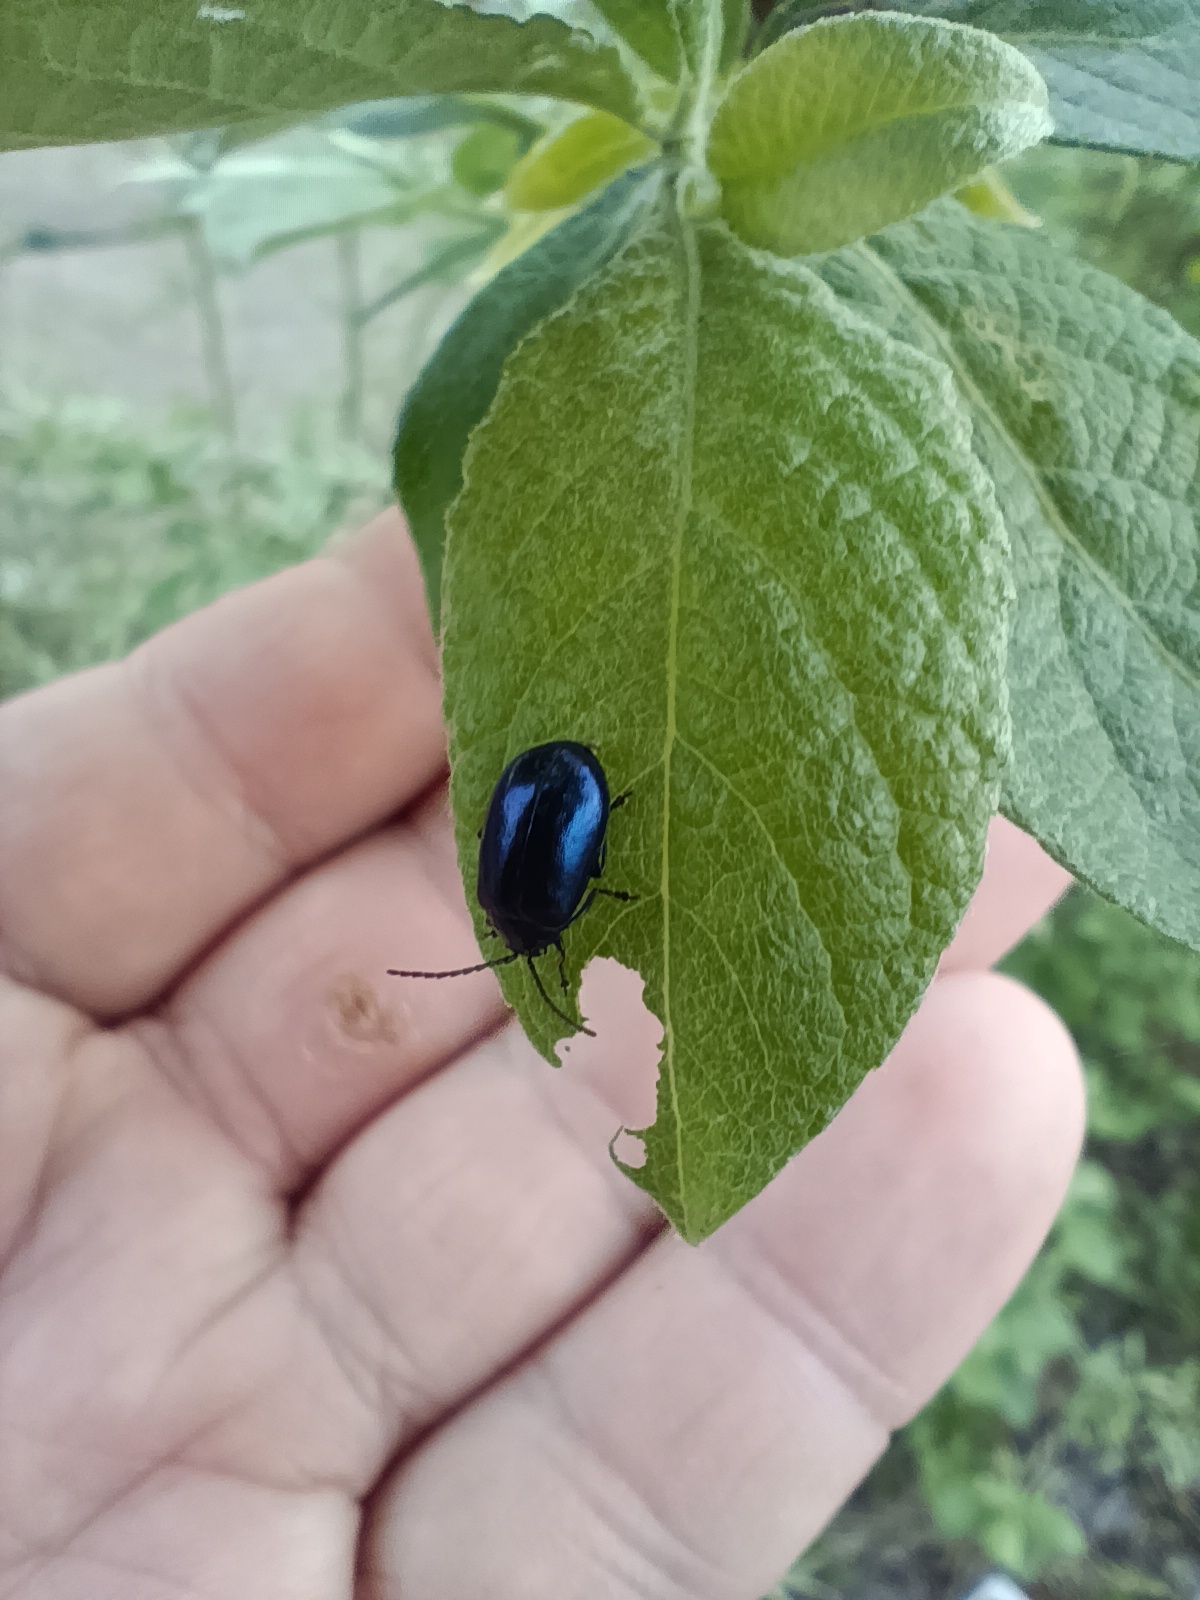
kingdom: Animalia
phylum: Arthropoda
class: Insecta
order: Coleoptera
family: Chrysomelidae
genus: Agelastica
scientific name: Agelastica alni
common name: Alder leaf beetle
